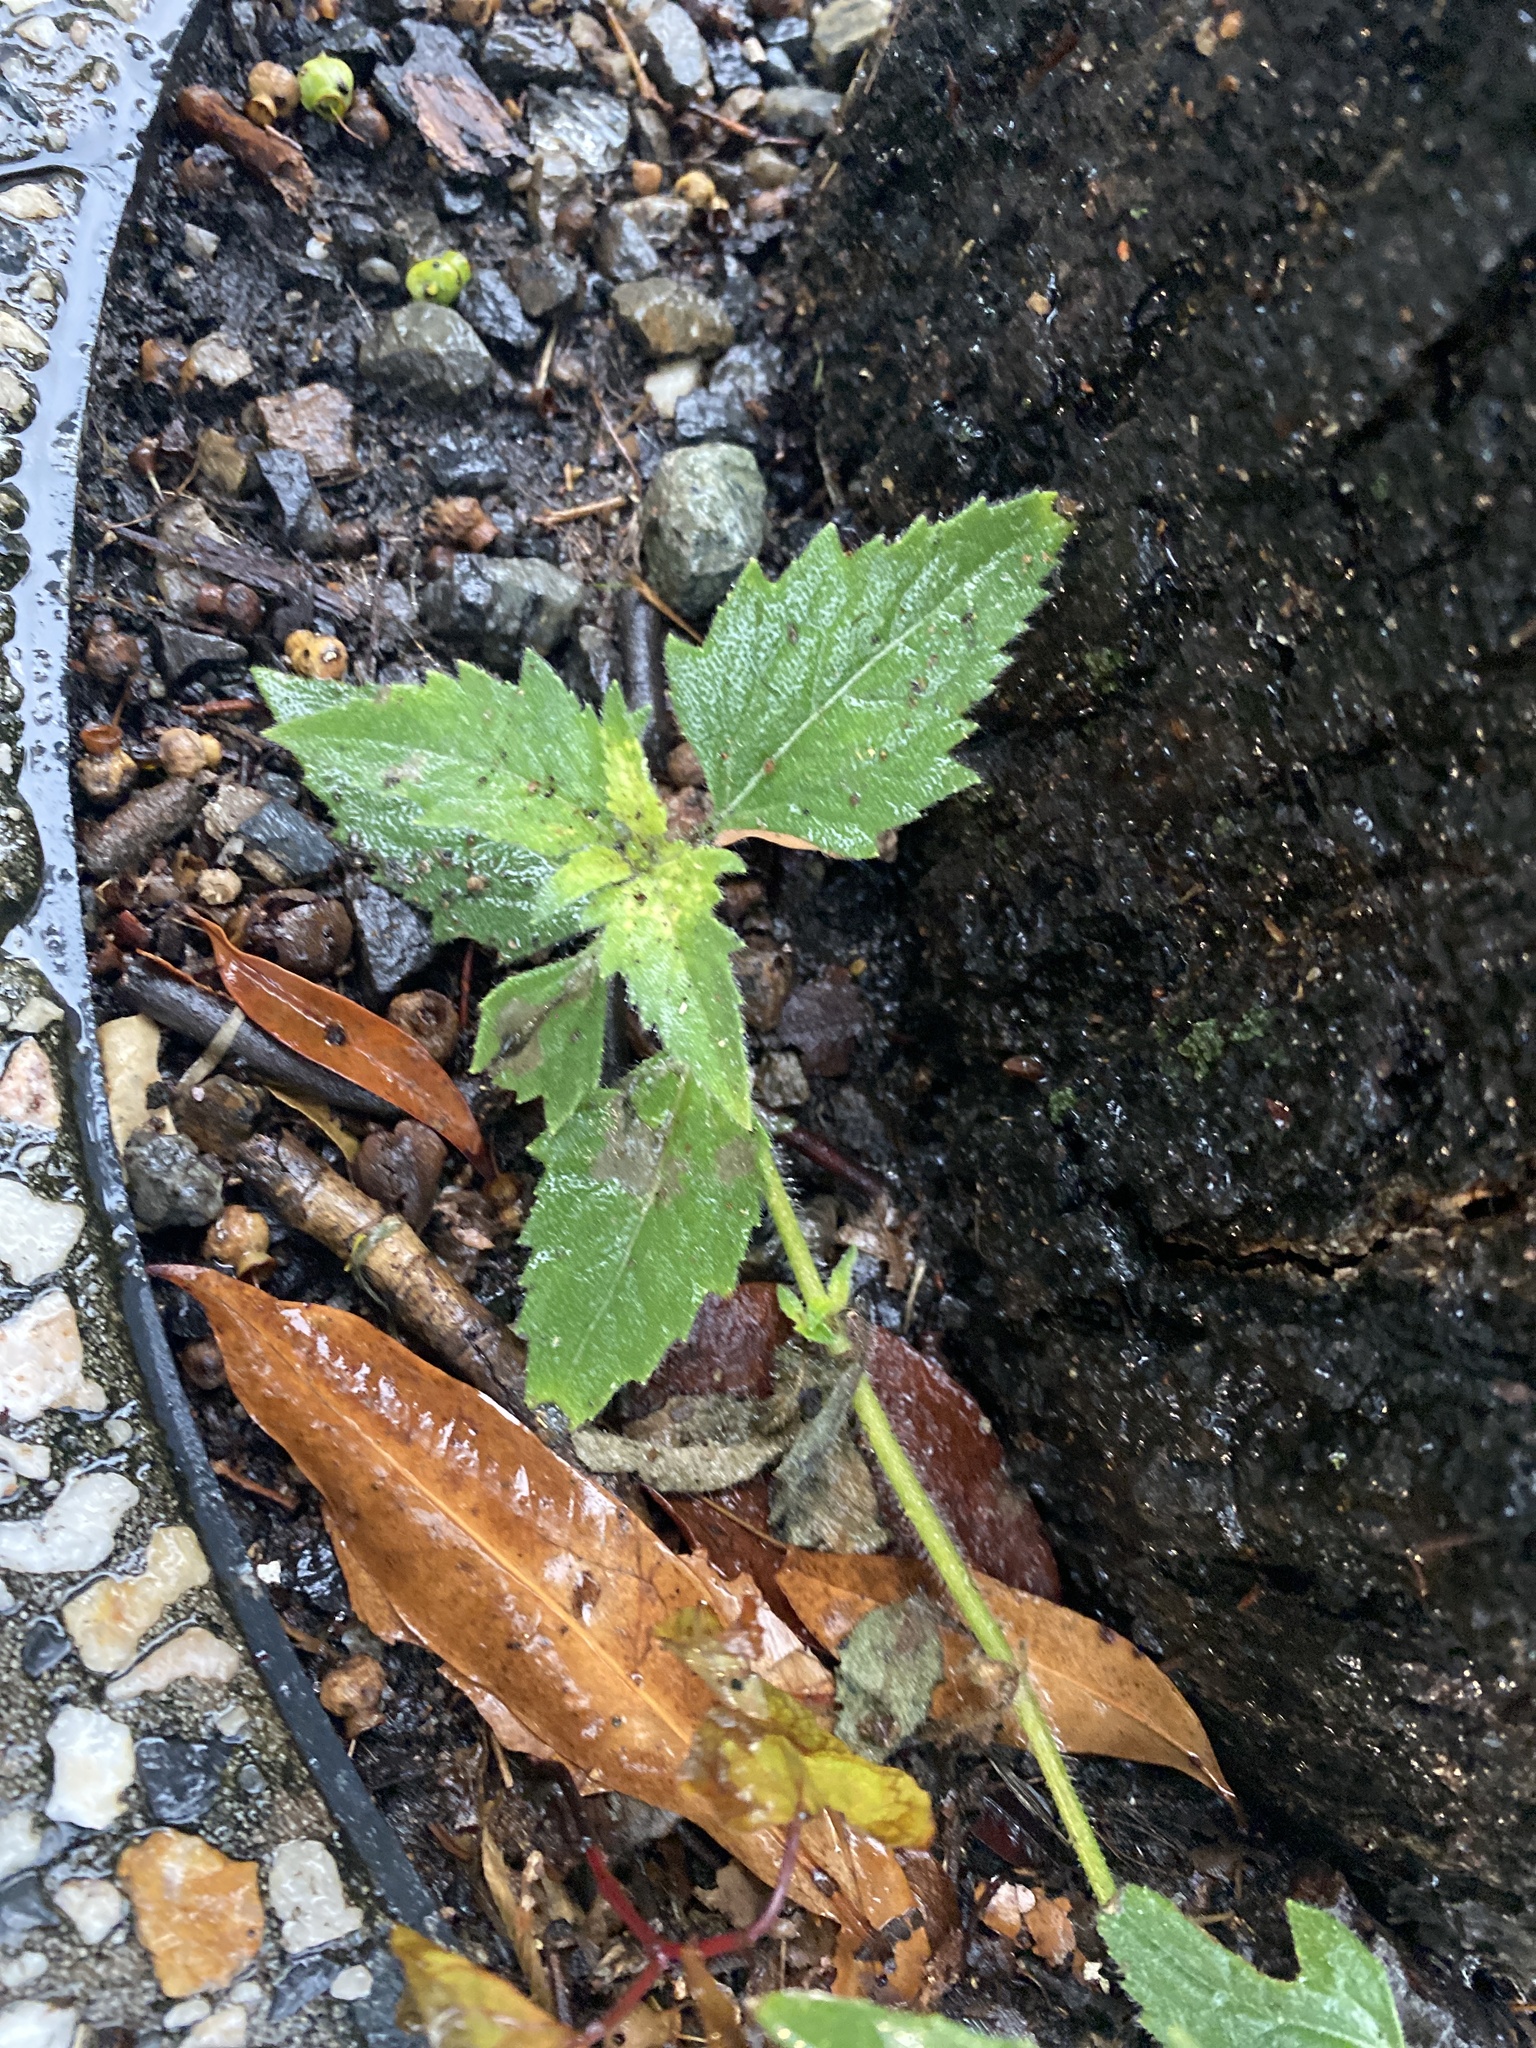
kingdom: Plantae
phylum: Tracheophyta
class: Magnoliopsida
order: Asterales
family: Asteraceae
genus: Tridax
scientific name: Tridax procumbens
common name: Coatbuttons
